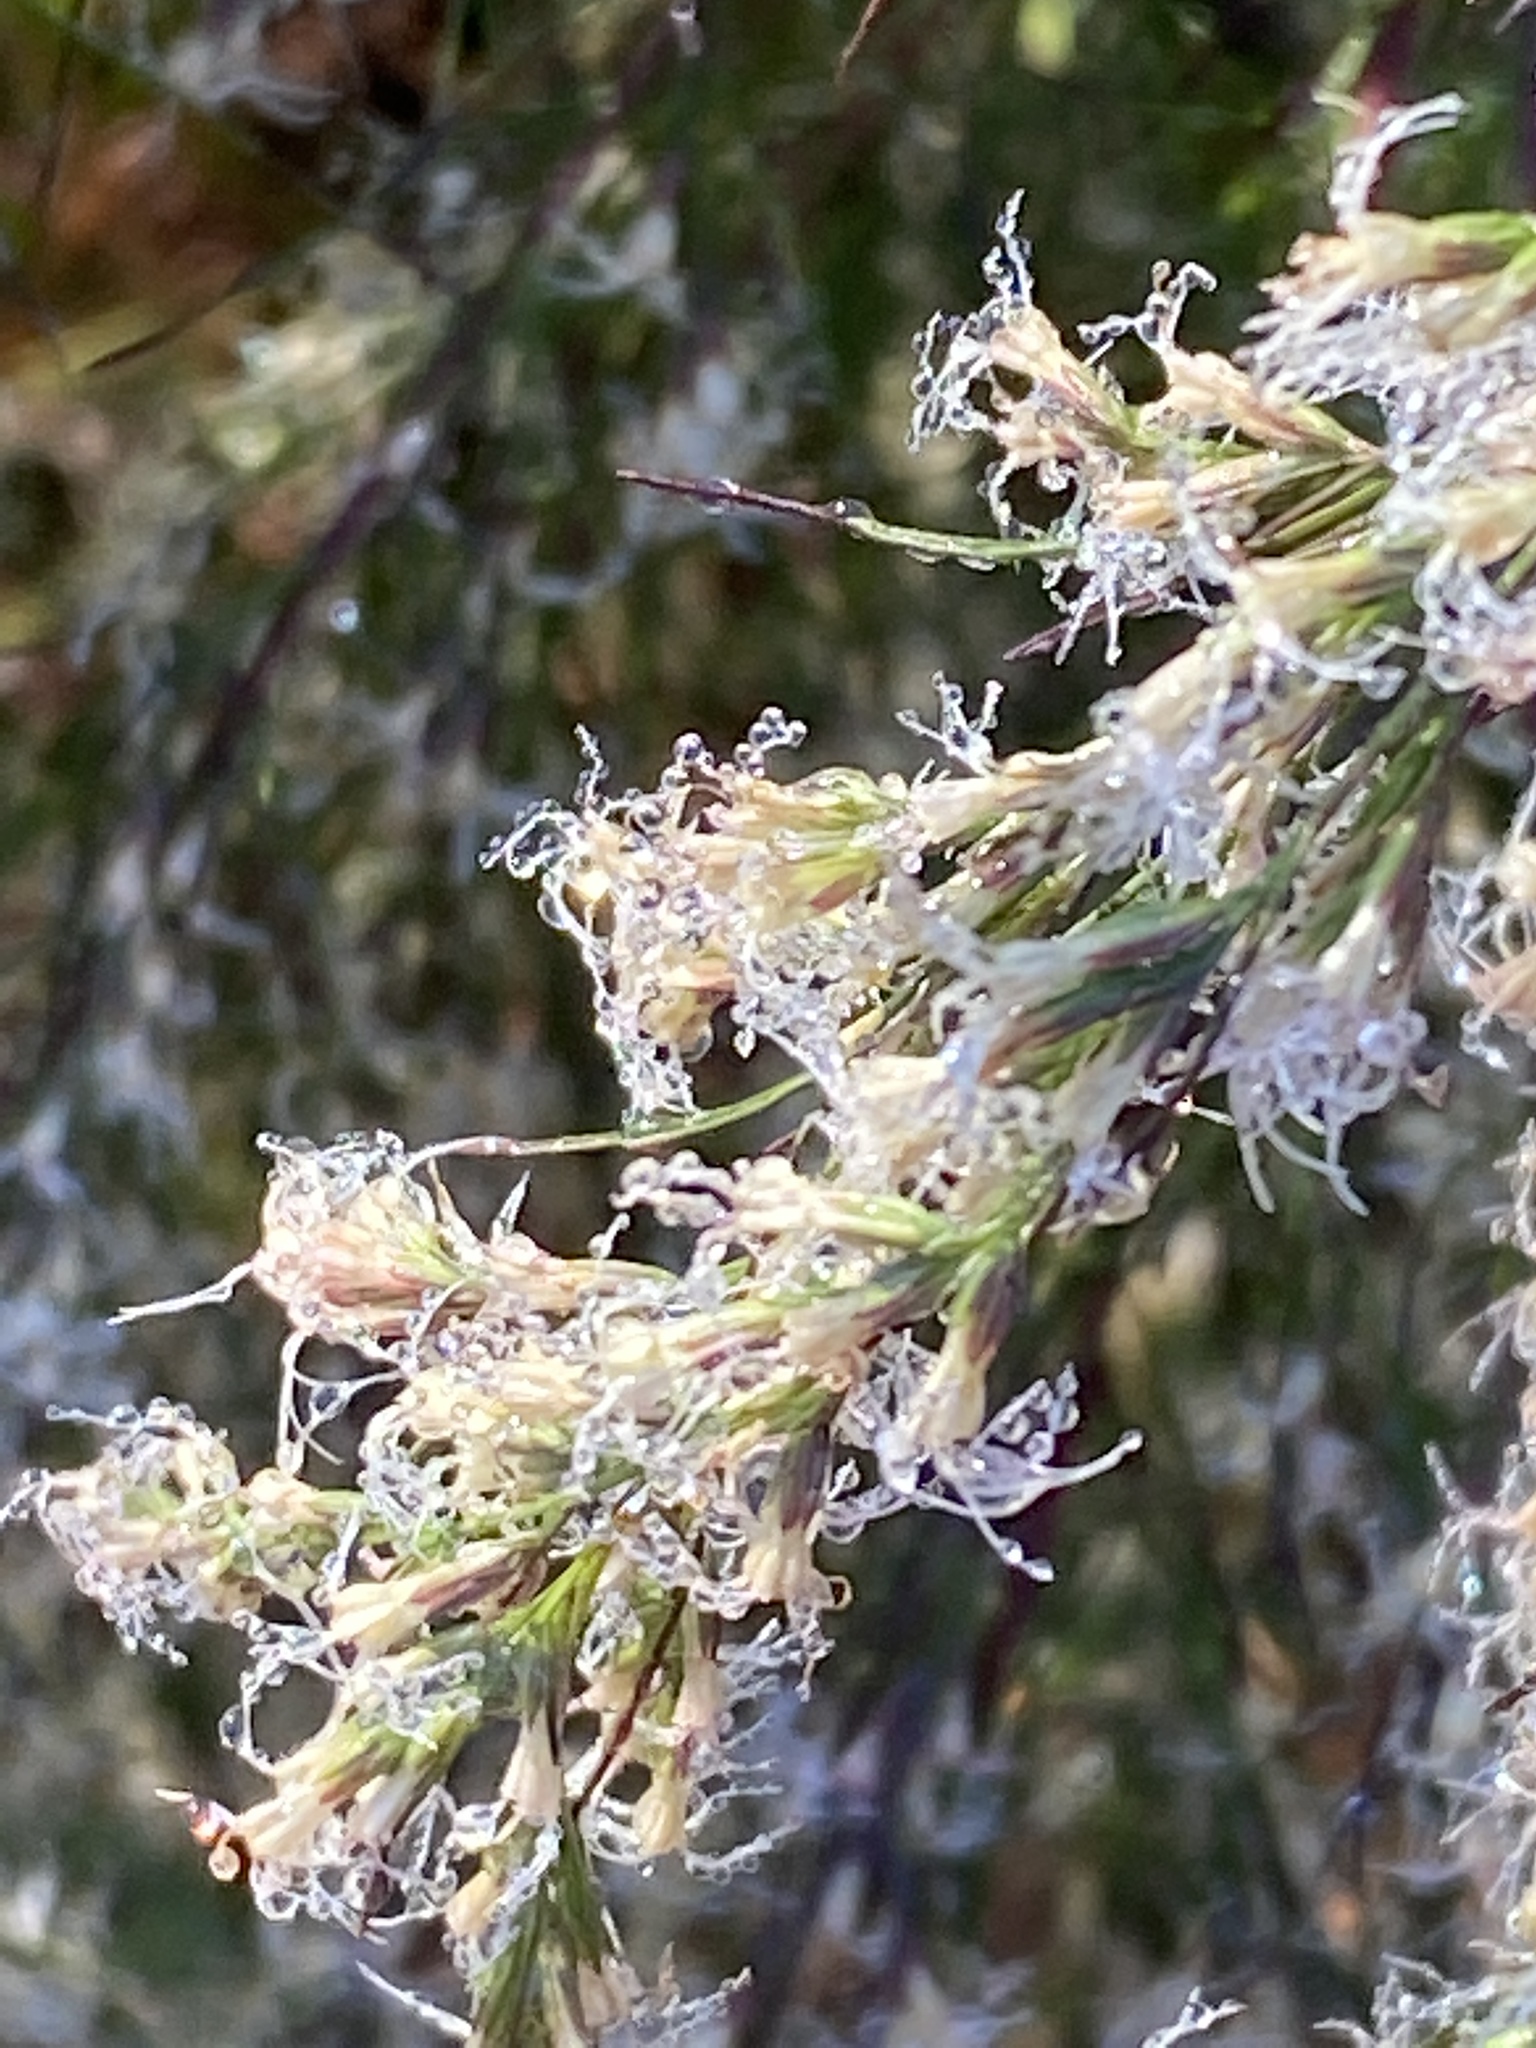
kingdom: Plantae
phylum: Tracheophyta
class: Magnoliopsida
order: Asterales
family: Asteraceae
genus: Eupatorium
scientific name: Eupatorium capillifolium
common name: Dog-fennel
